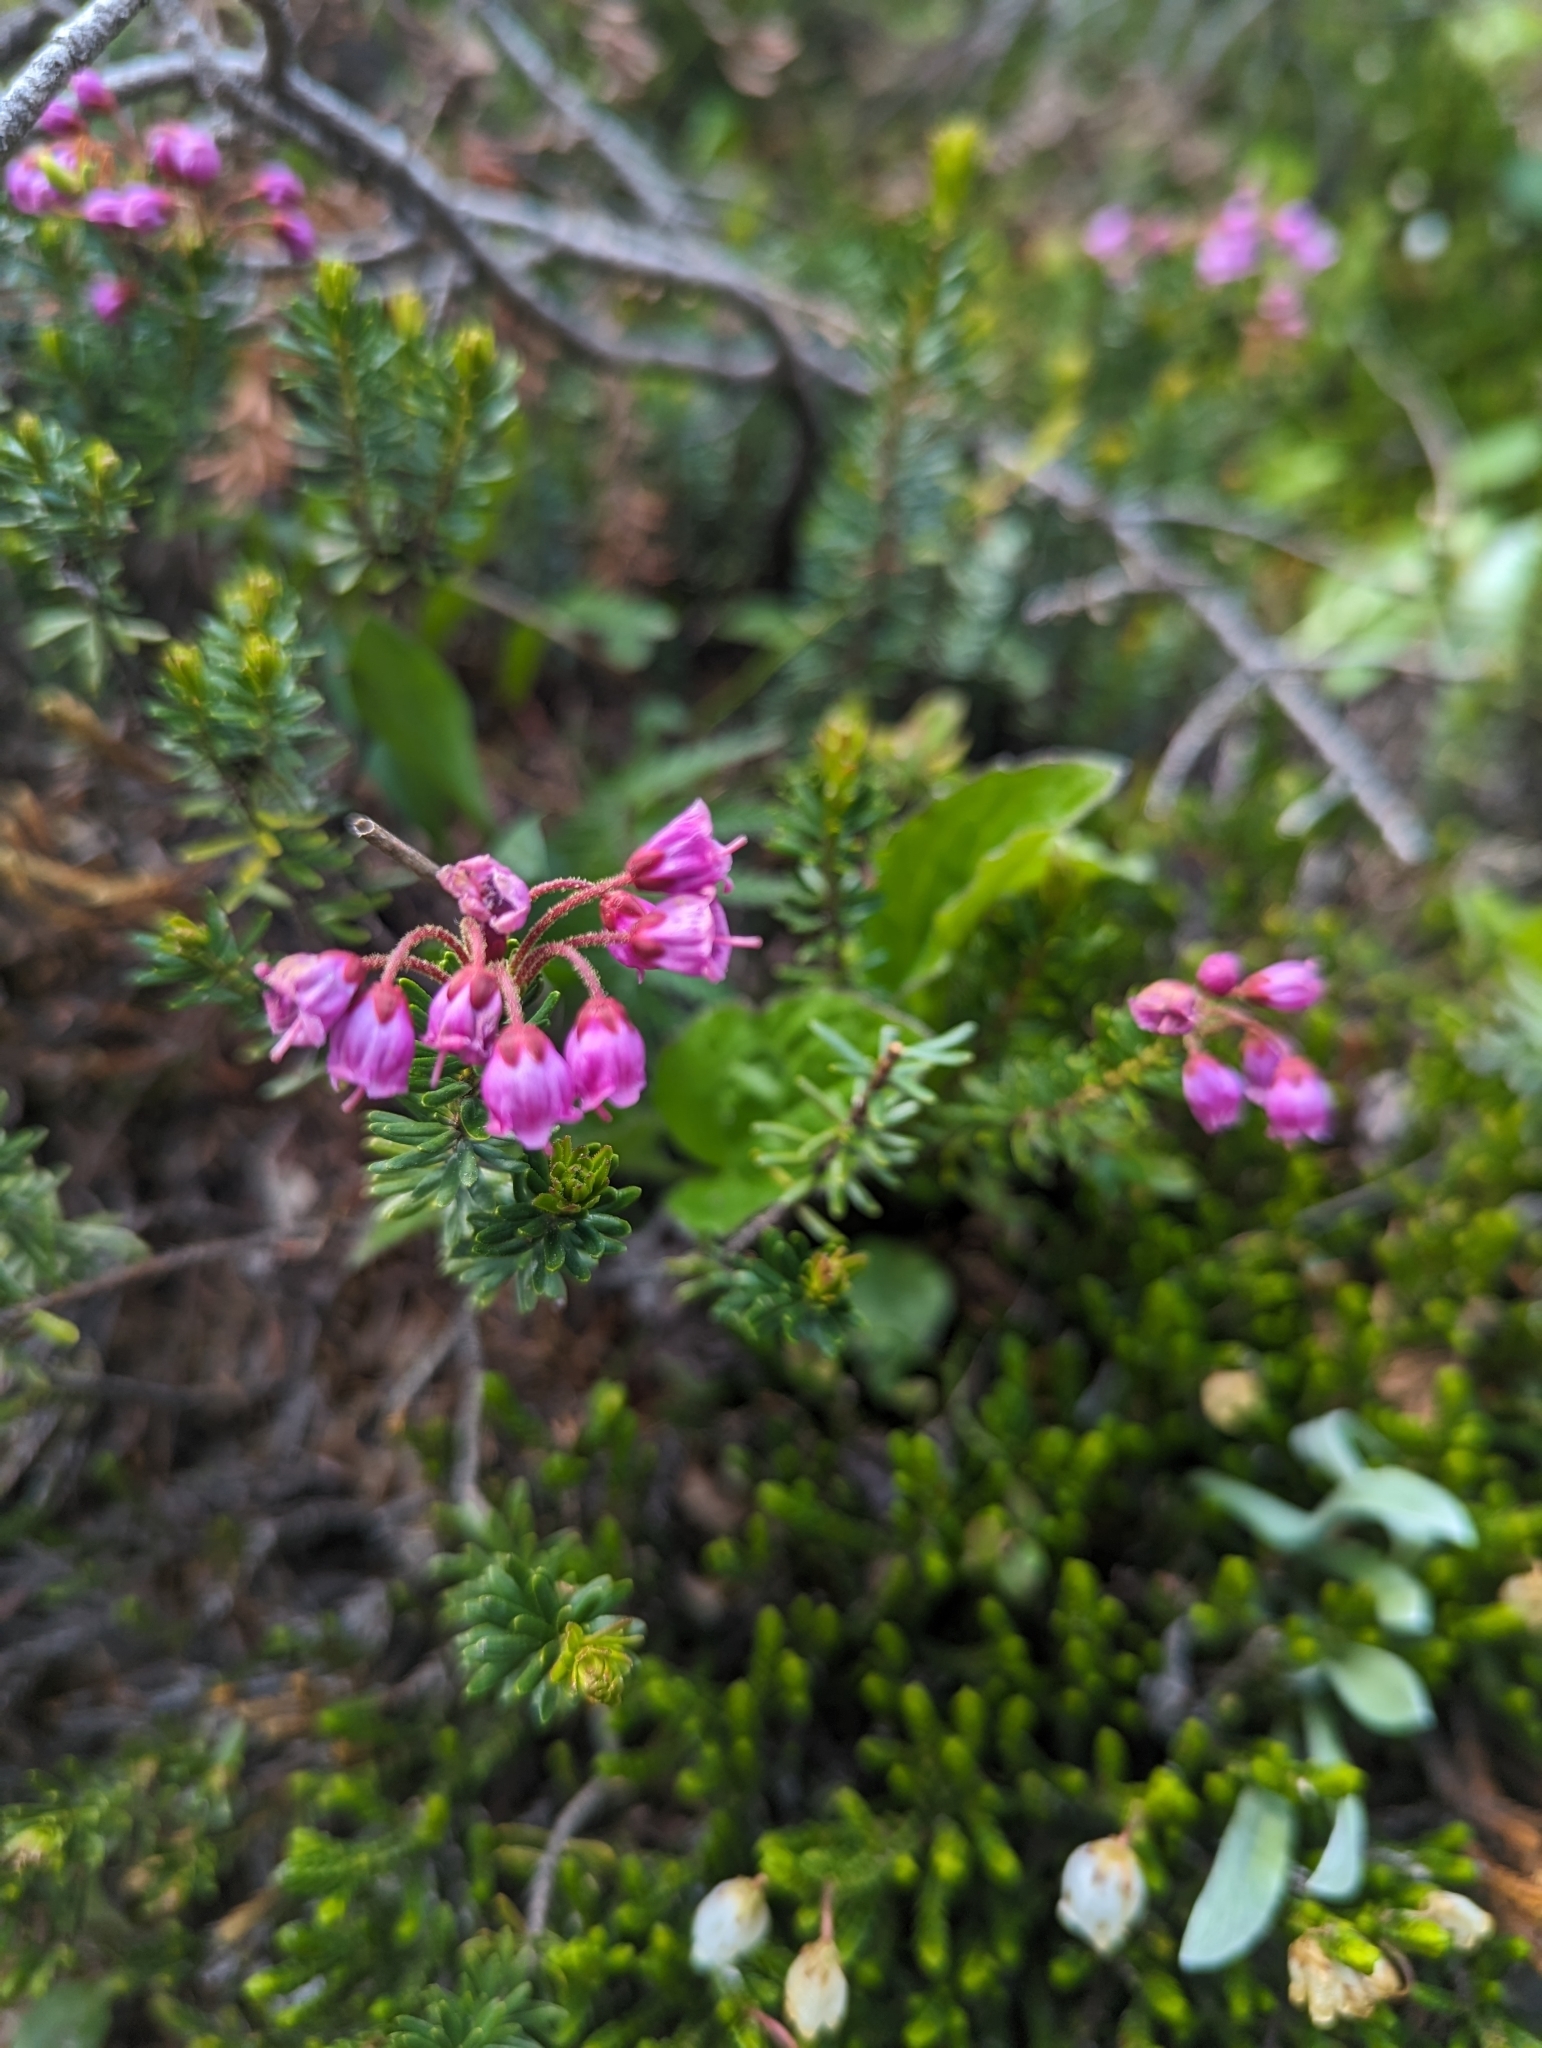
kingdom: Plantae
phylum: Tracheophyta
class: Magnoliopsida
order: Ericales
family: Ericaceae
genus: Phyllodoce
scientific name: Phyllodoce empetriformis
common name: Pink mountain heather
